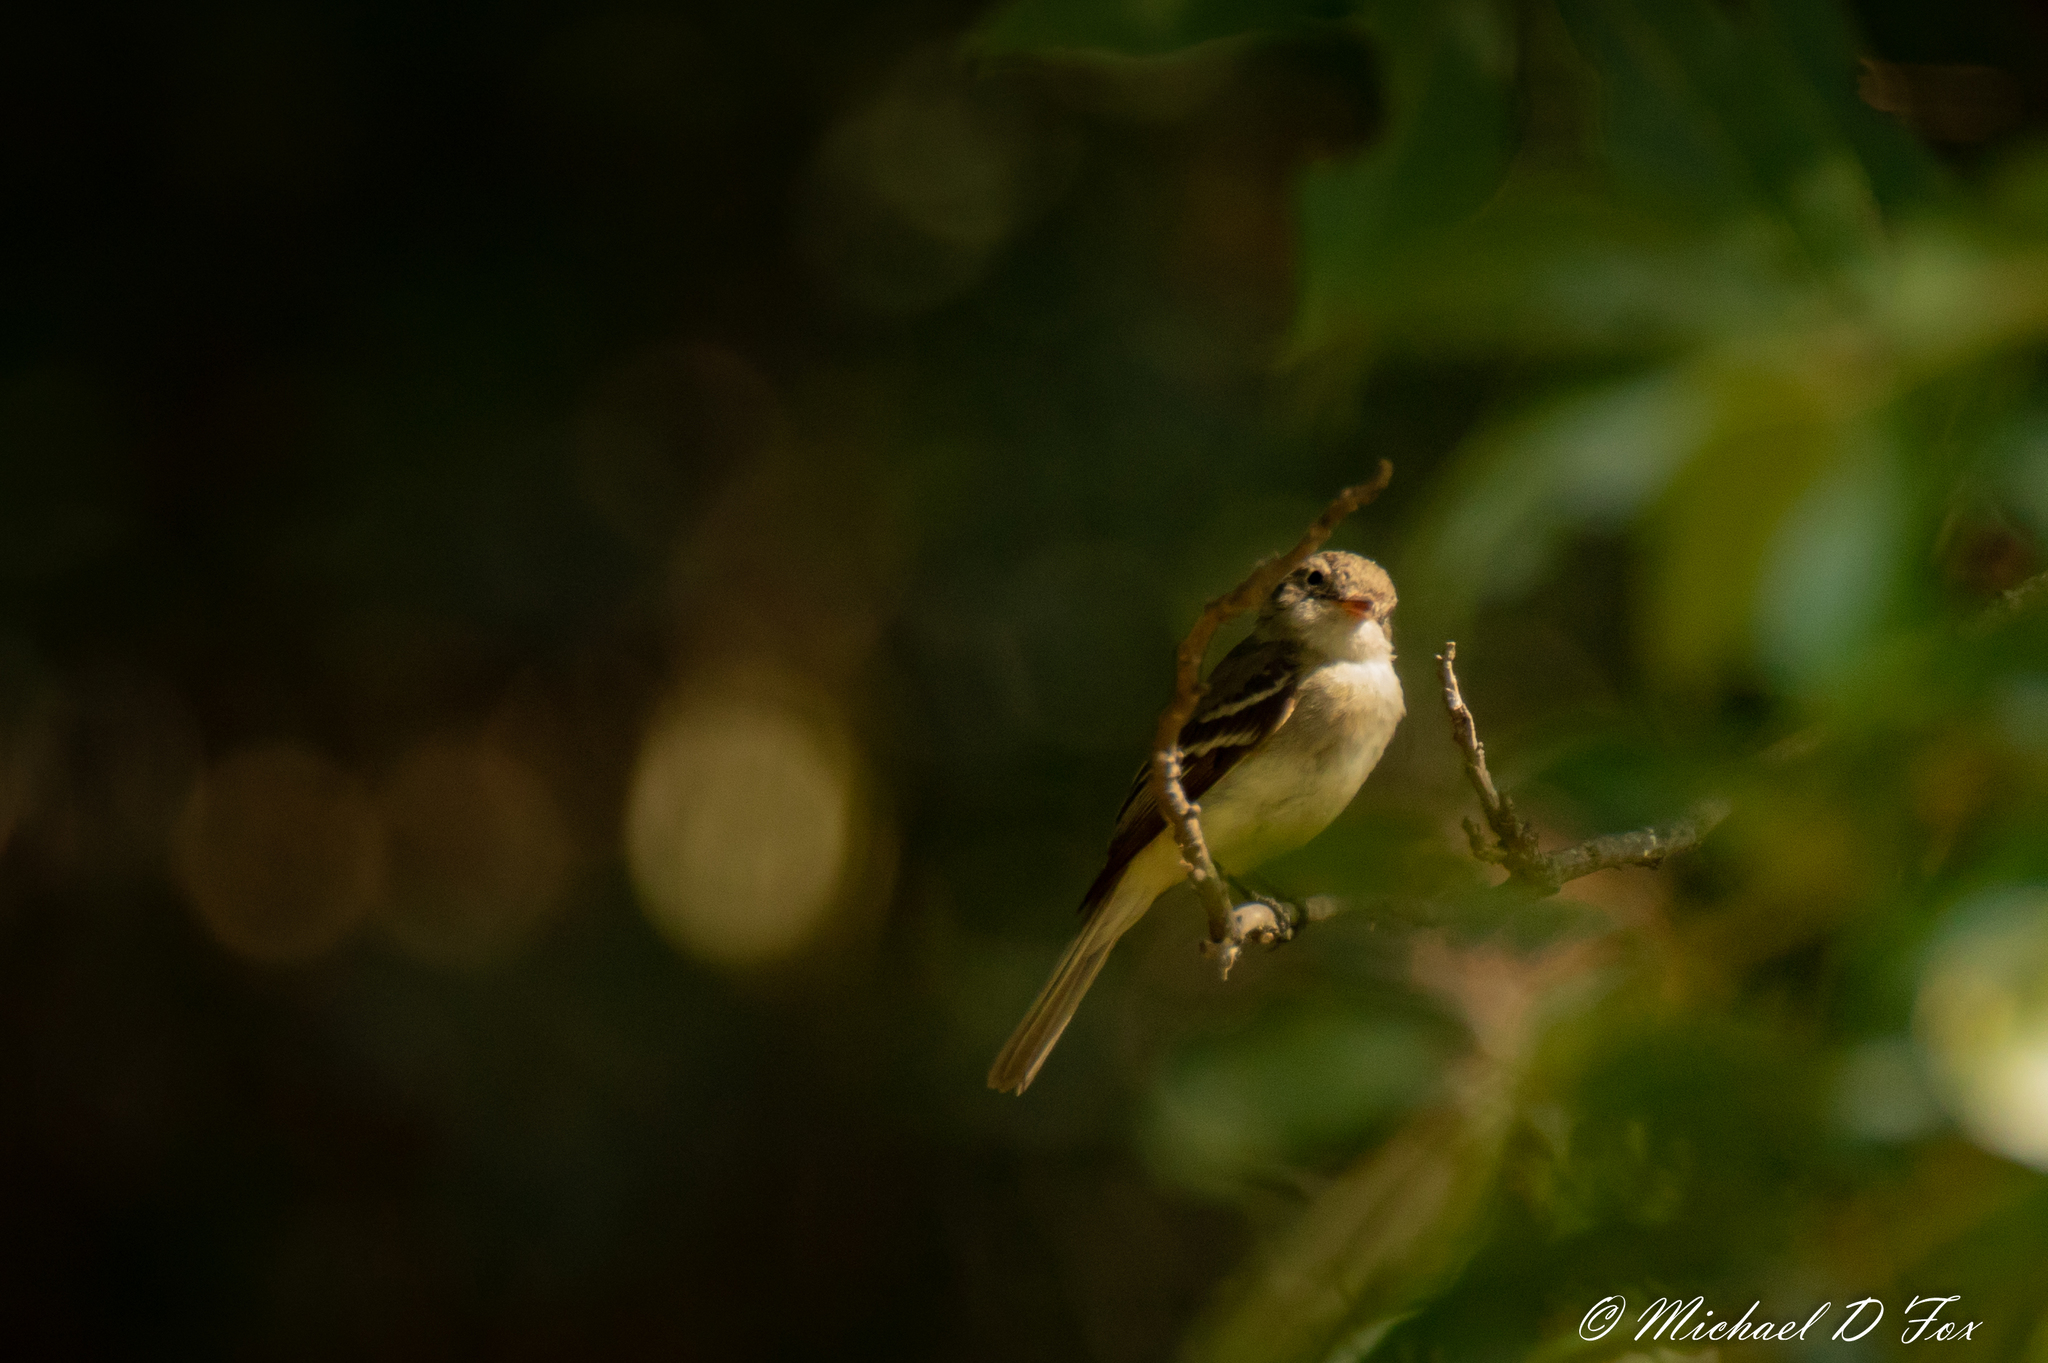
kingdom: Animalia
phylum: Chordata
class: Aves
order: Passeriformes
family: Tyrannidae
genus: Empidonax
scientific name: Empidonax
